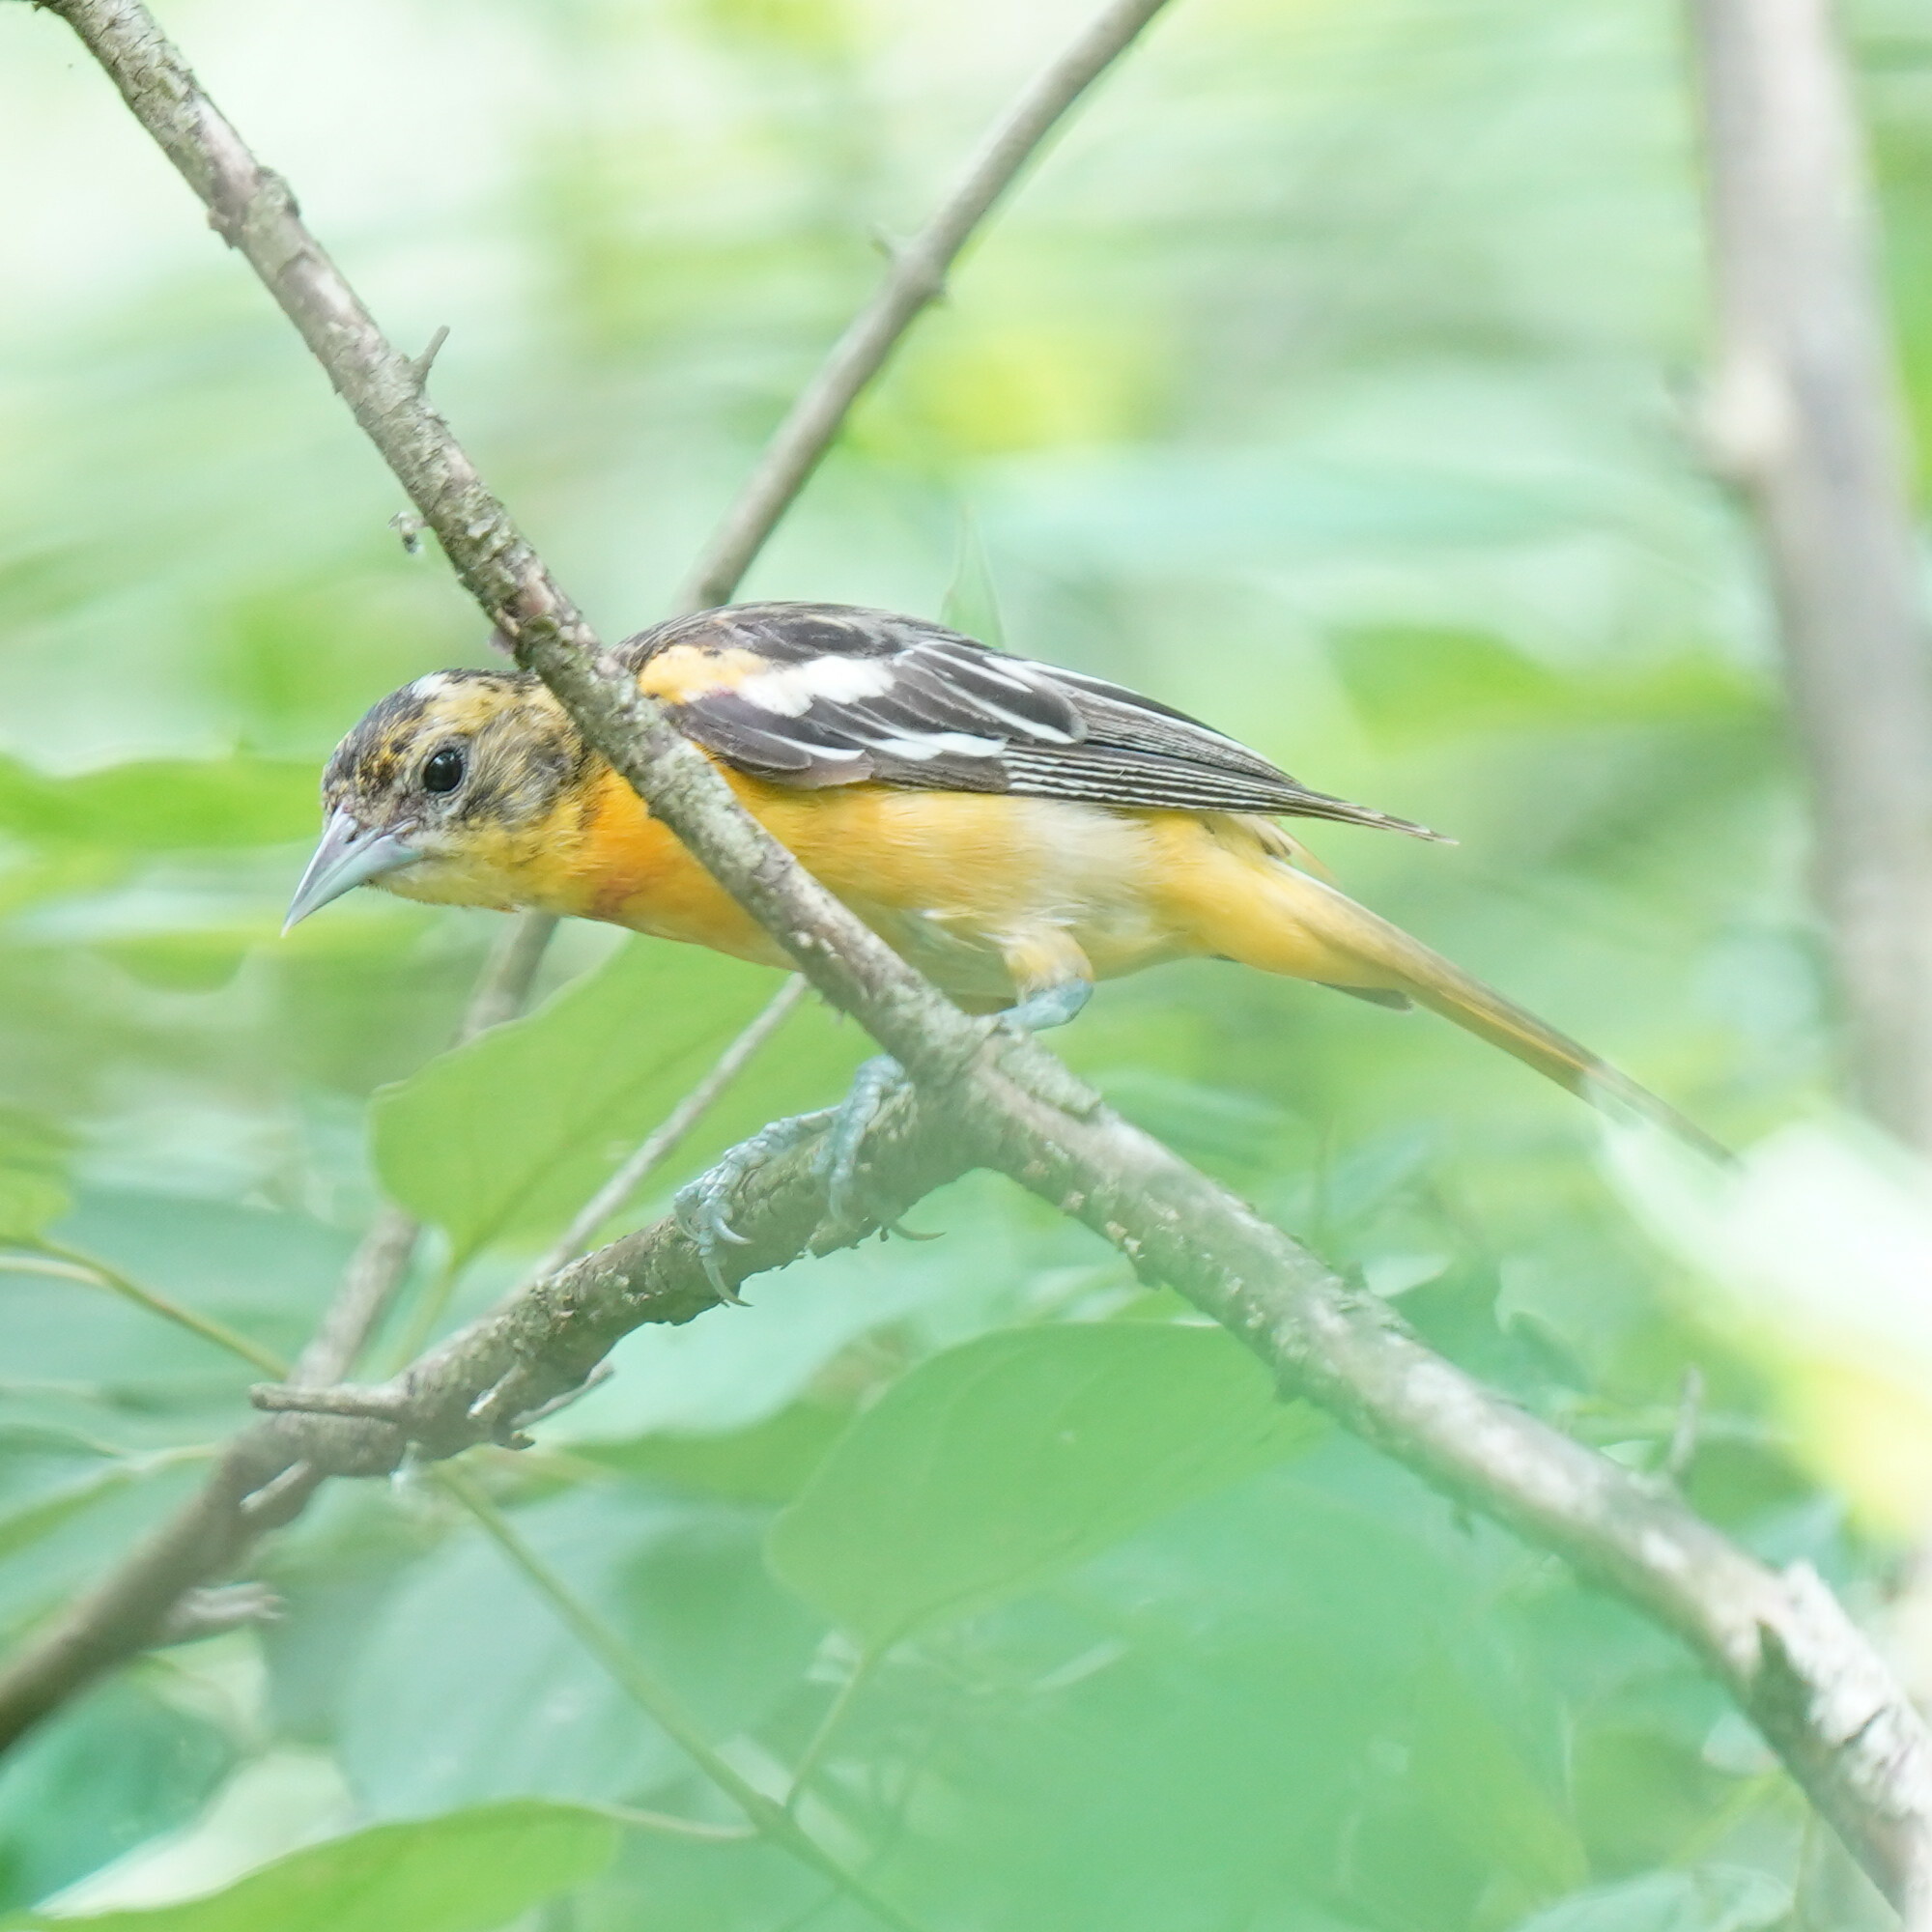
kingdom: Animalia
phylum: Chordata
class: Aves
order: Passeriformes
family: Icteridae
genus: Icterus
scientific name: Icterus galbula
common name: Baltimore oriole
